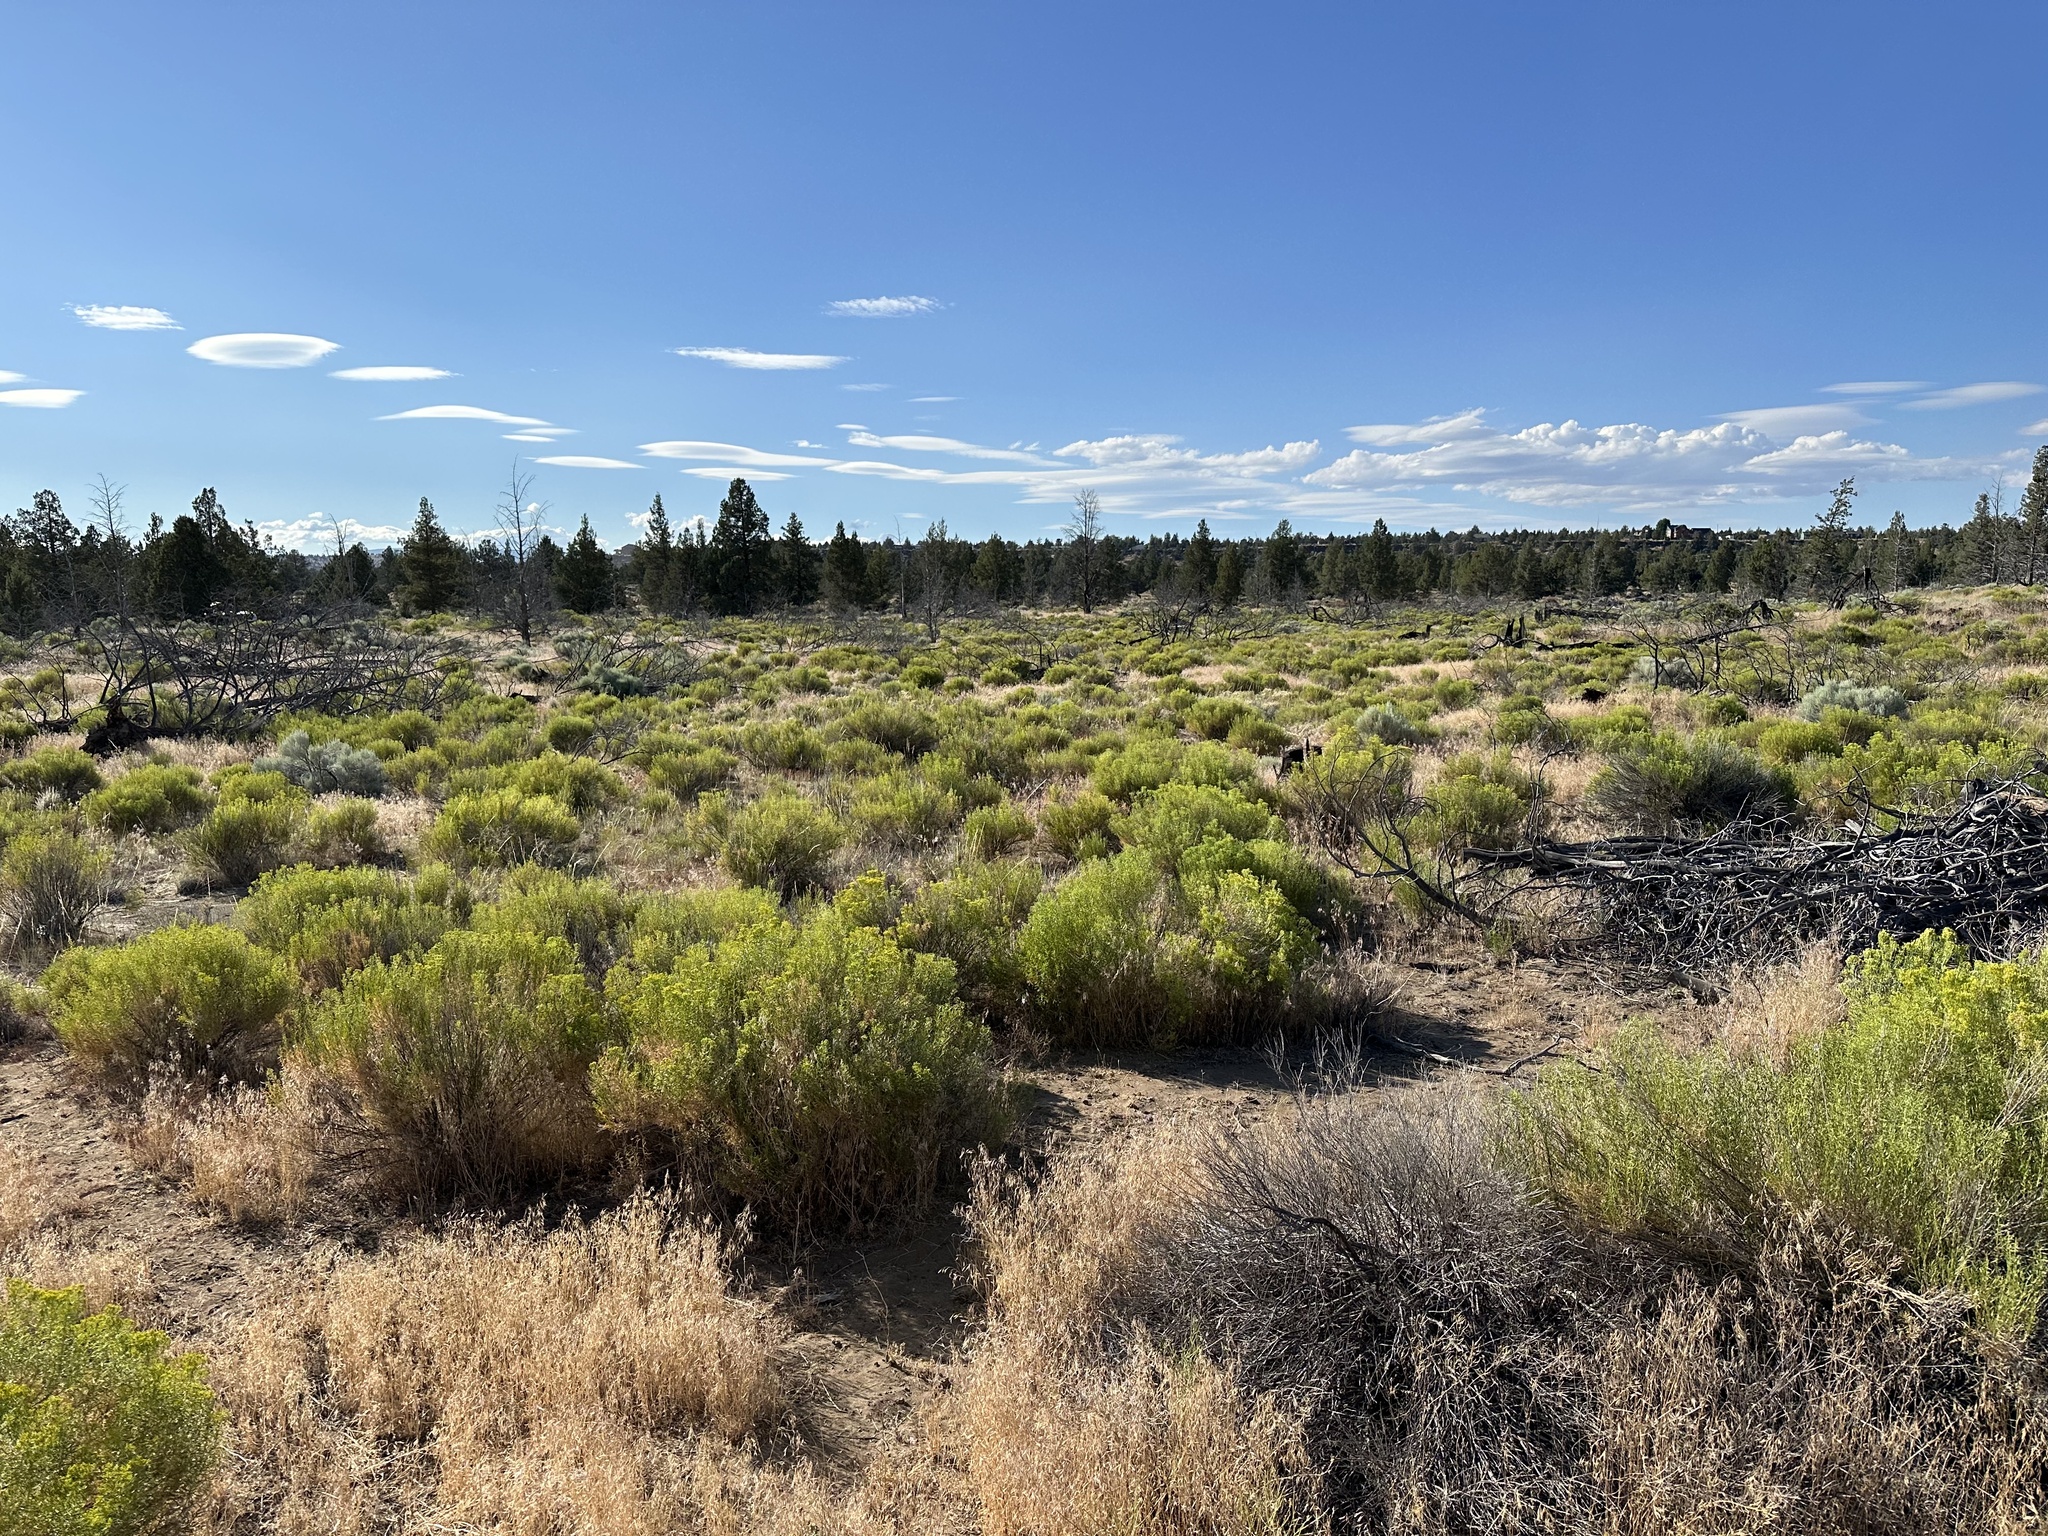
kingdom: Plantae
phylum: Tracheophyta
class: Magnoliopsida
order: Asterales
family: Asteraceae
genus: Chrysothamnus
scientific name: Chrysothamnus viscidiflorus
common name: Yellow rabbitbrush
